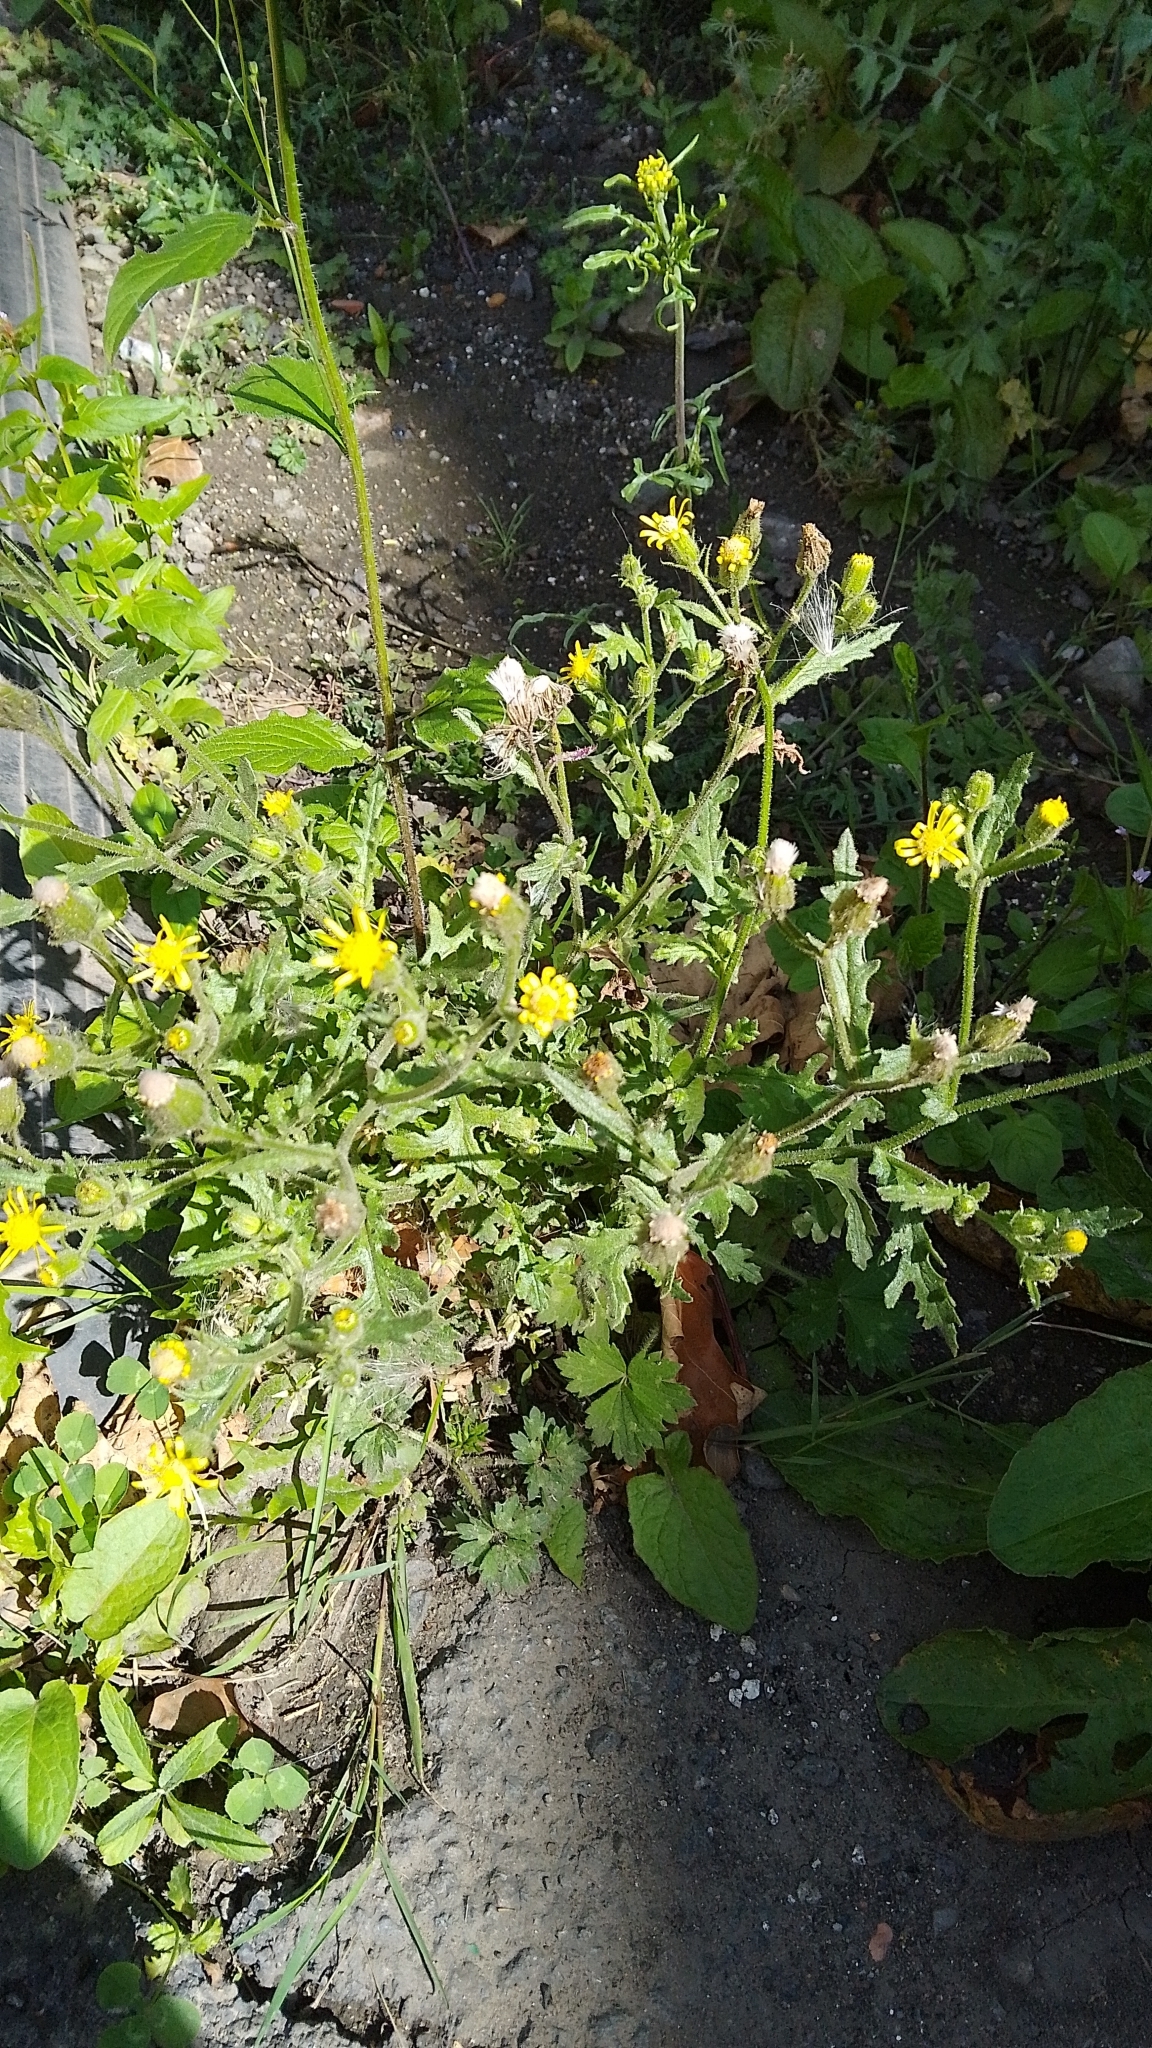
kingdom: Plantae
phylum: Tracheophyta
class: Magnoliopsida
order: Asterales
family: Asteraceae
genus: Senecio
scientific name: Senecio viscosus
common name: Sticky groundsel
